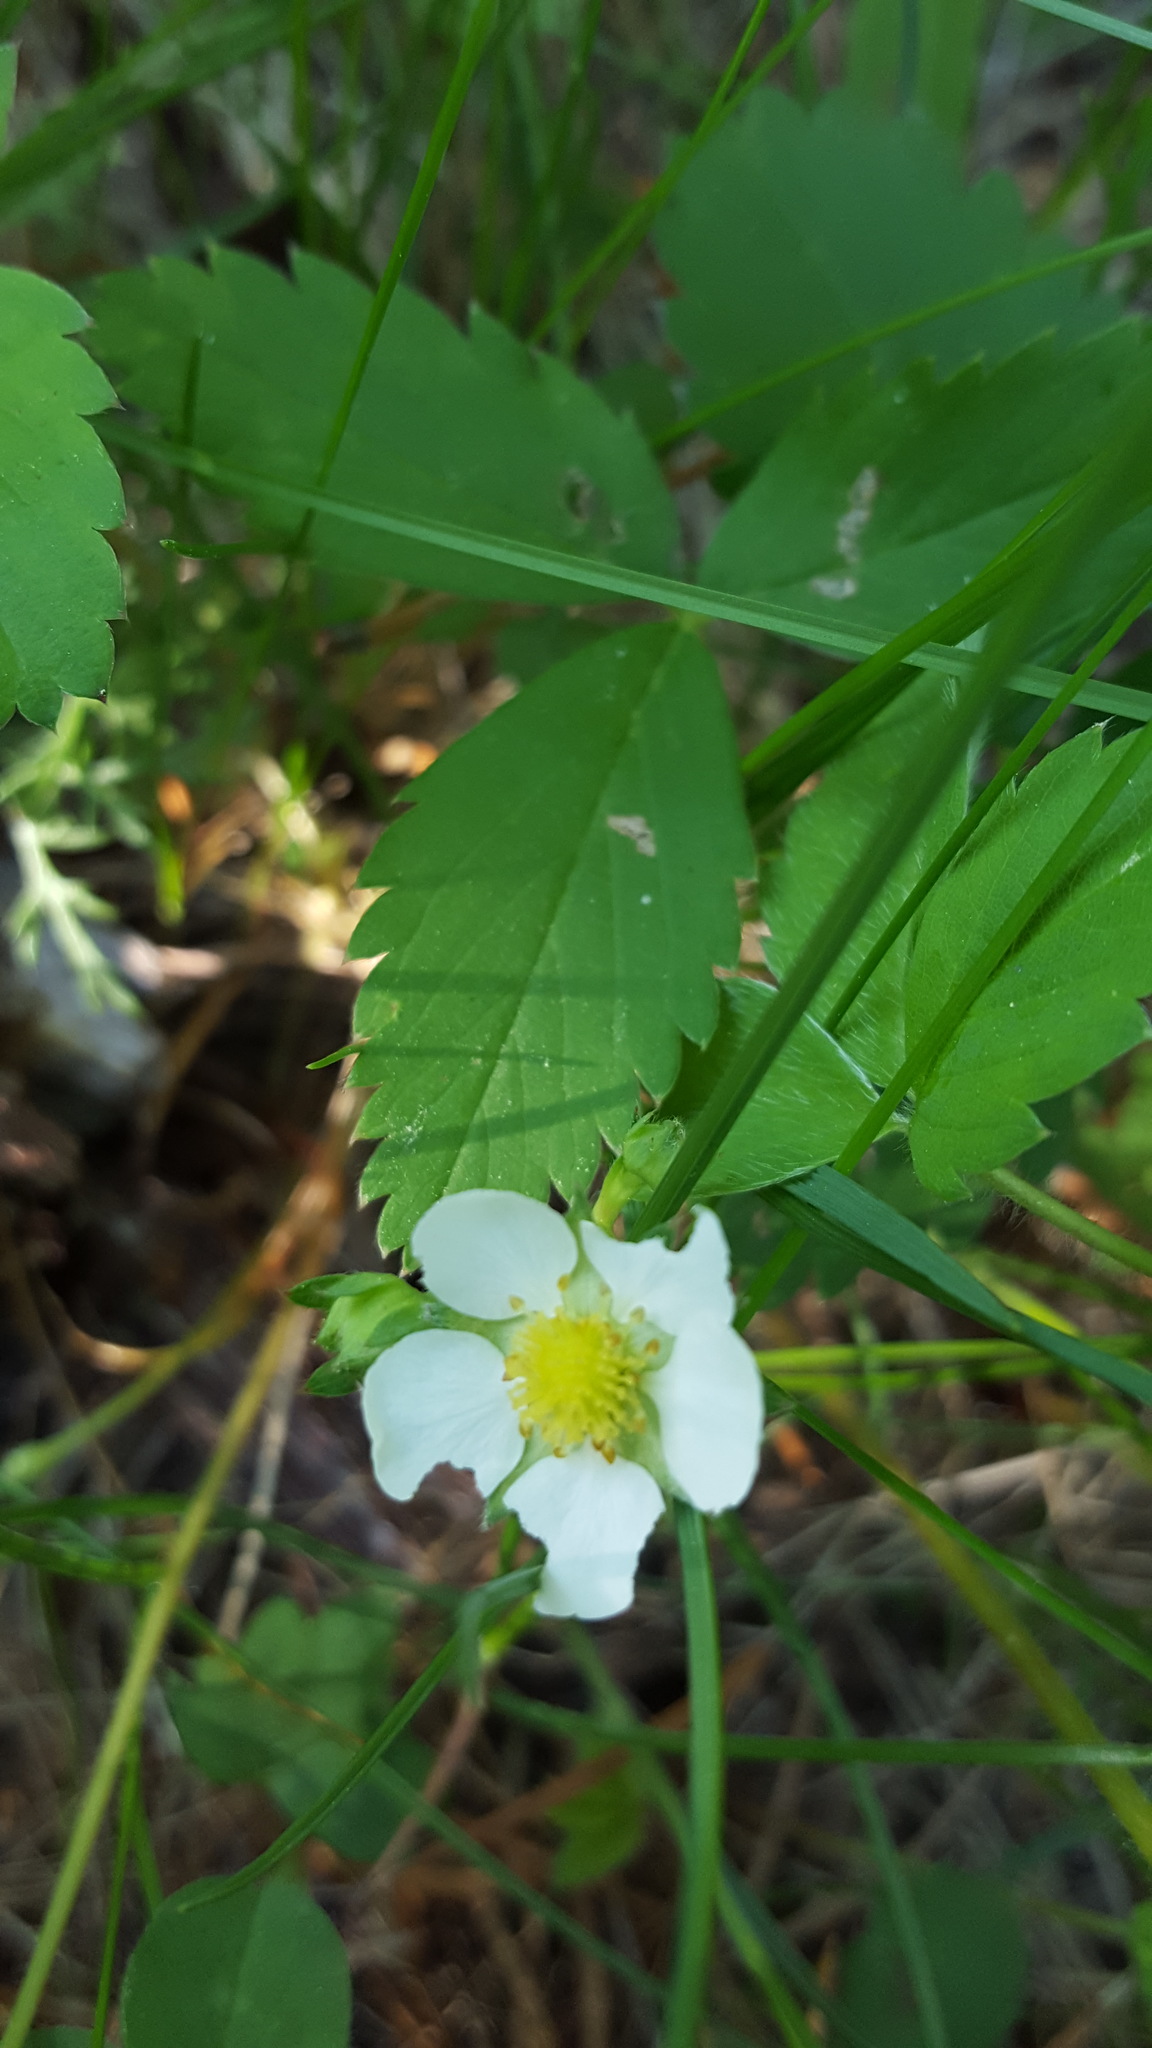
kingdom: Plantae
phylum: Tracheophyta
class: Magnoliopsida
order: Rosales
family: Rosaceae
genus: Fragaria
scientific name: Fragaria vesca
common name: Wild strawberry
